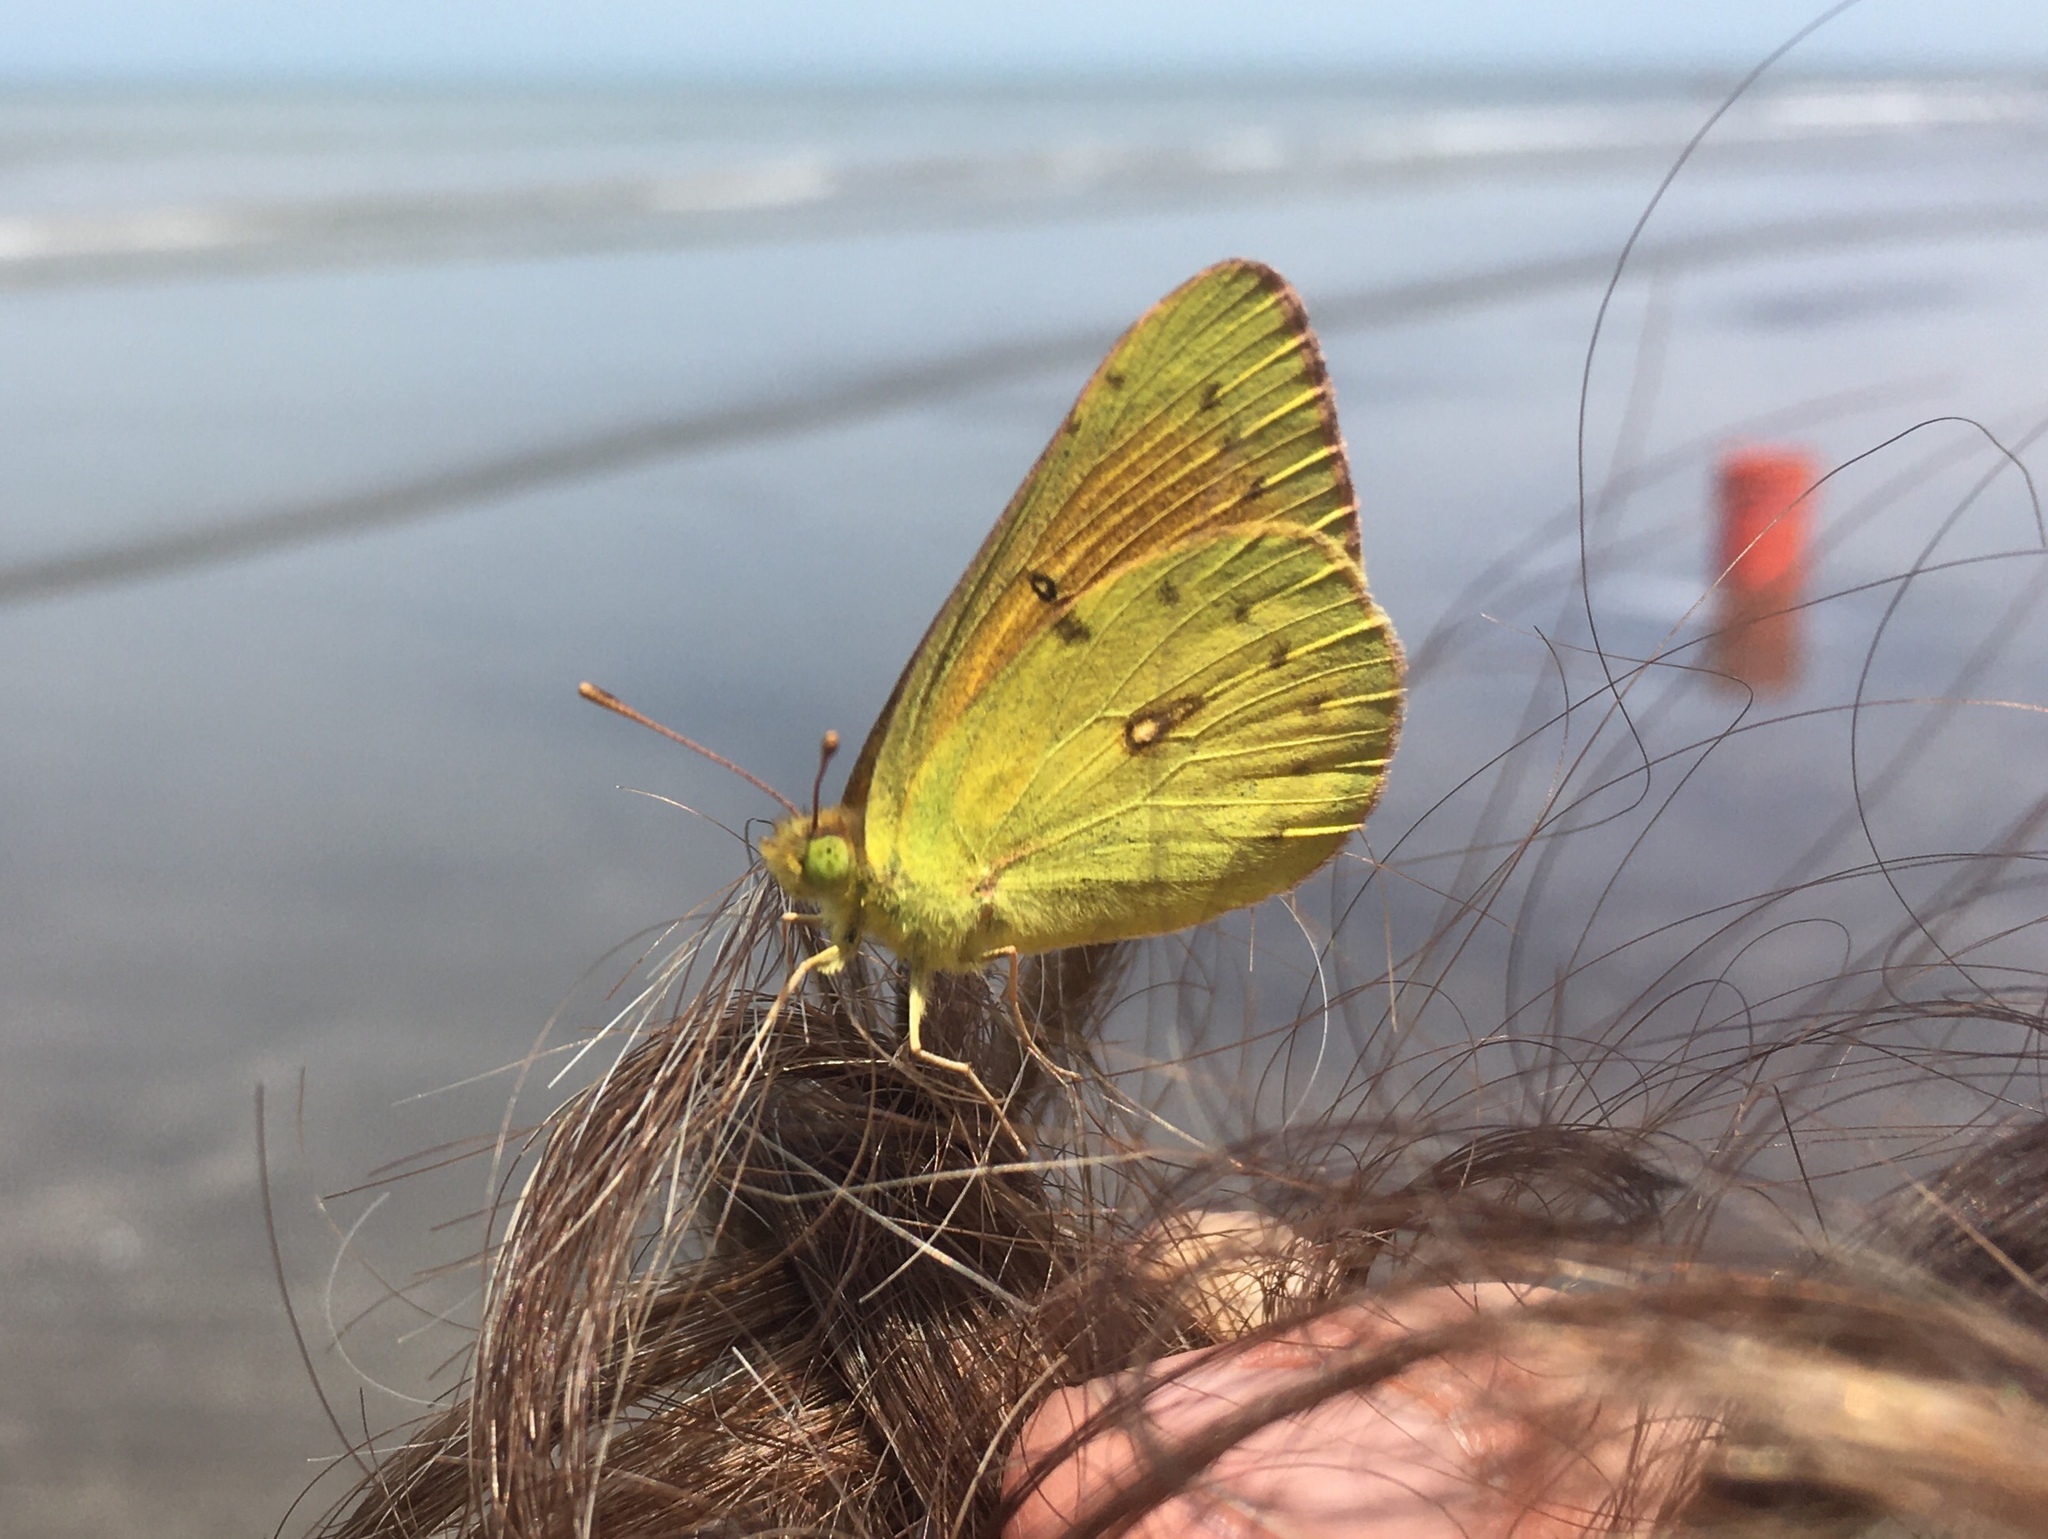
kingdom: Animalia
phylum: Arthropoda
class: Insecta
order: Lepidoptera
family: Pieridae
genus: Colias
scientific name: Colias lesbia
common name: Lesbia clouded yellow
